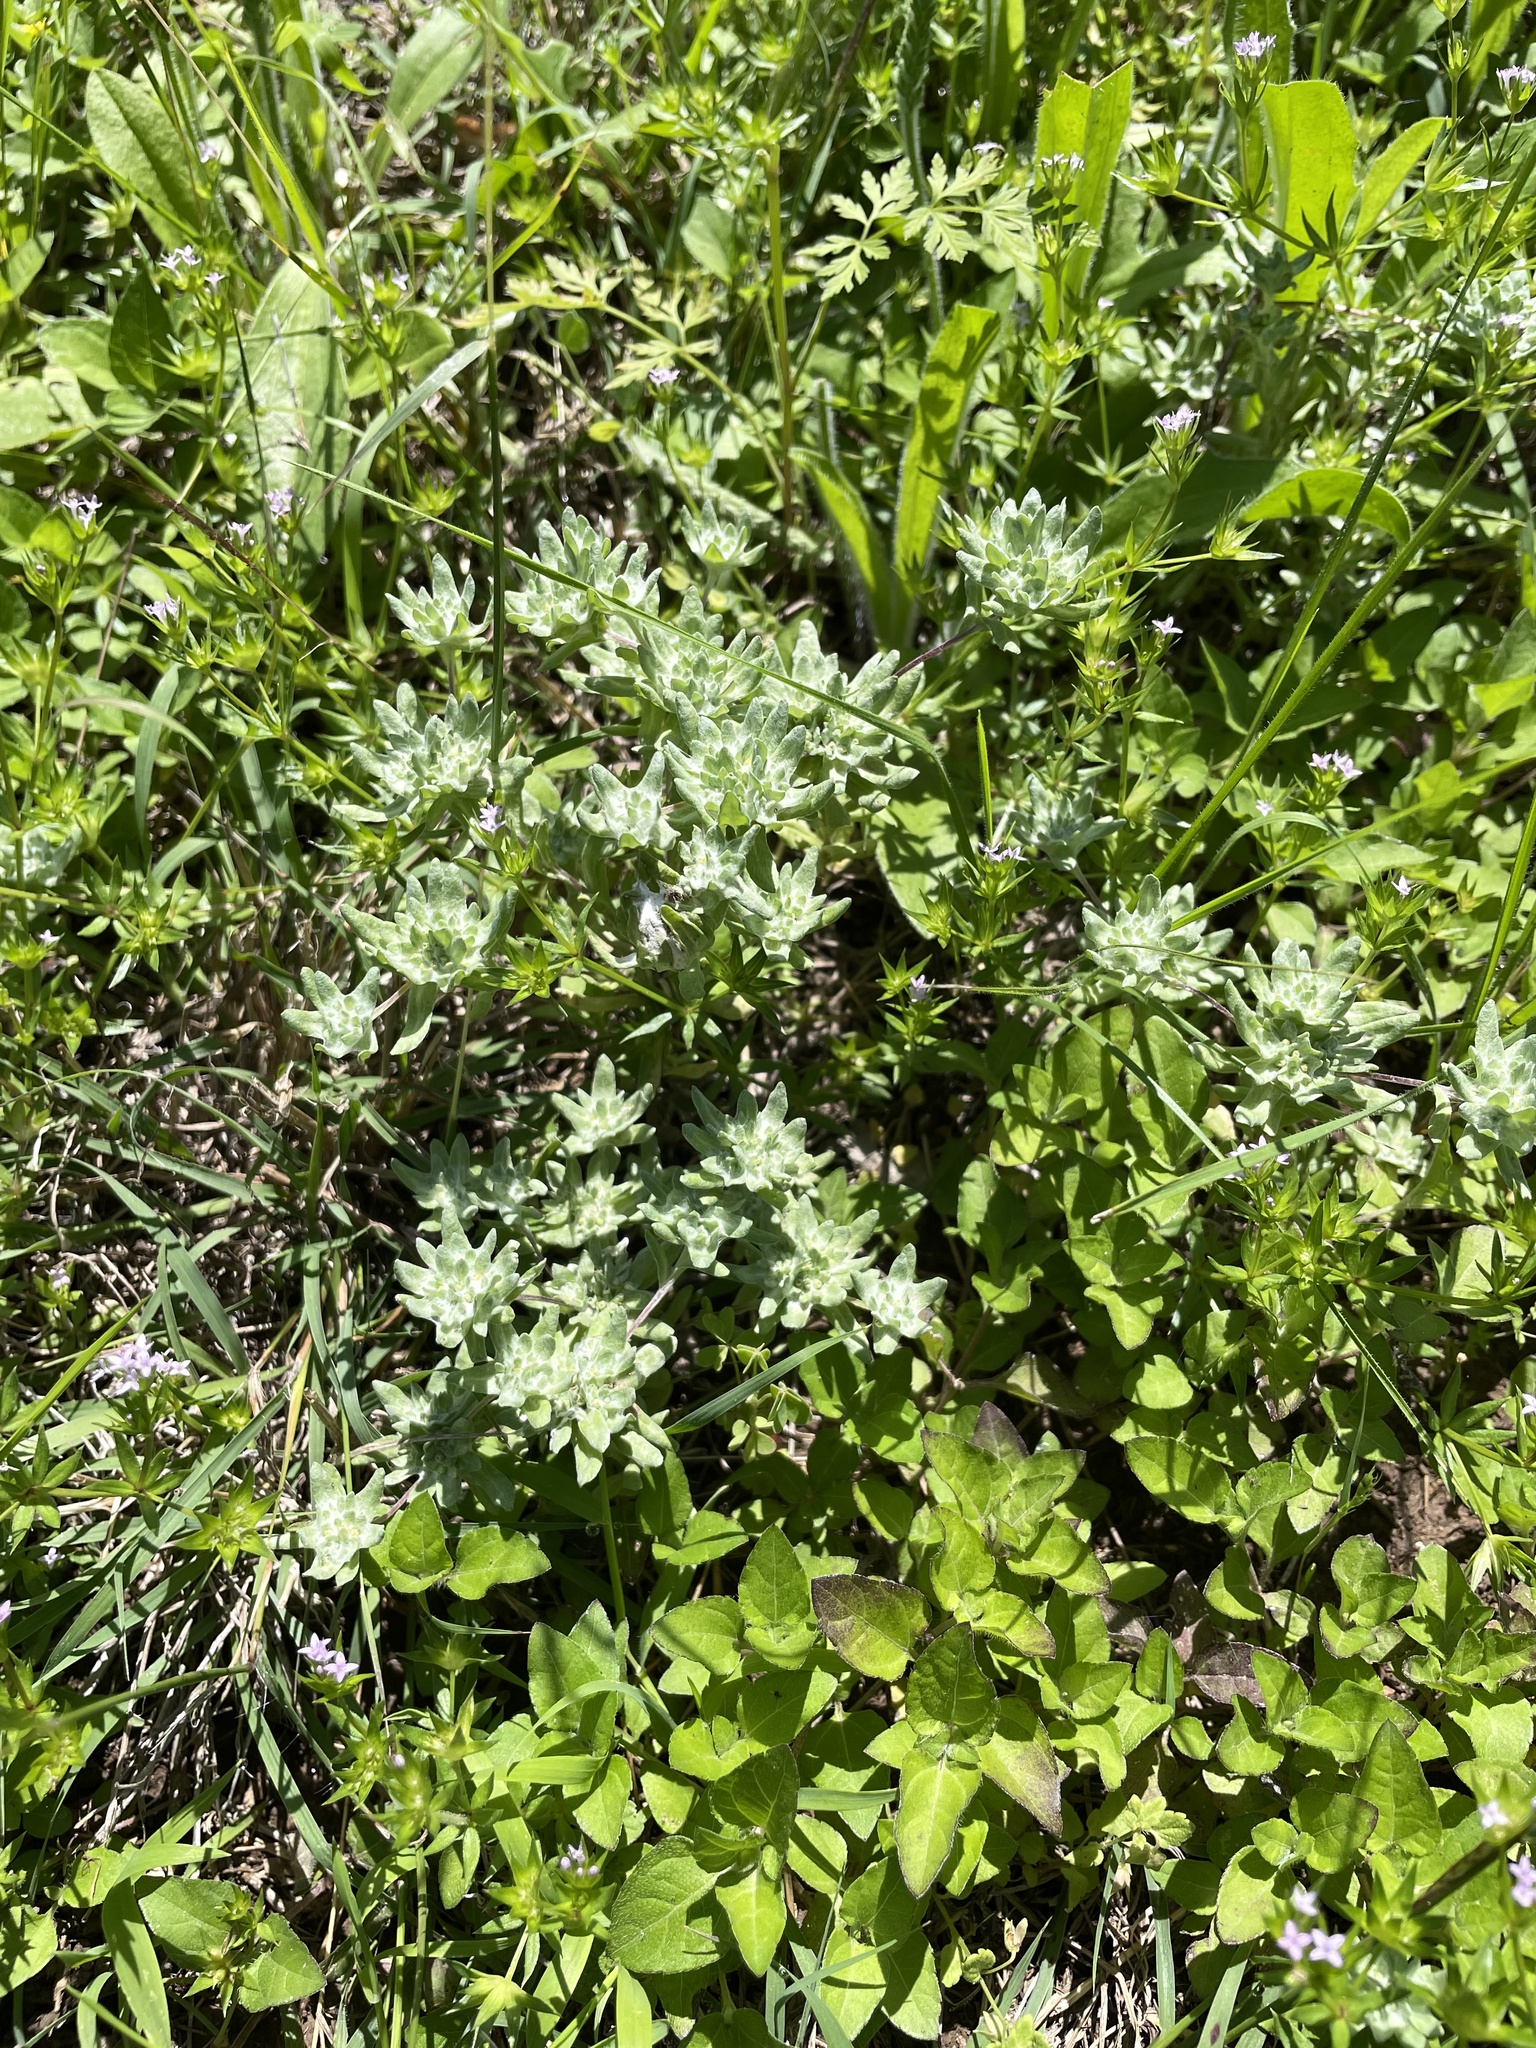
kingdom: Plantae
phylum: Tracheophyta
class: Magnoliopsida
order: Asterales
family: Asteraceae
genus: Diaperia
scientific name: Diaperia prolifera
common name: Big-head rabbit-tobacco
